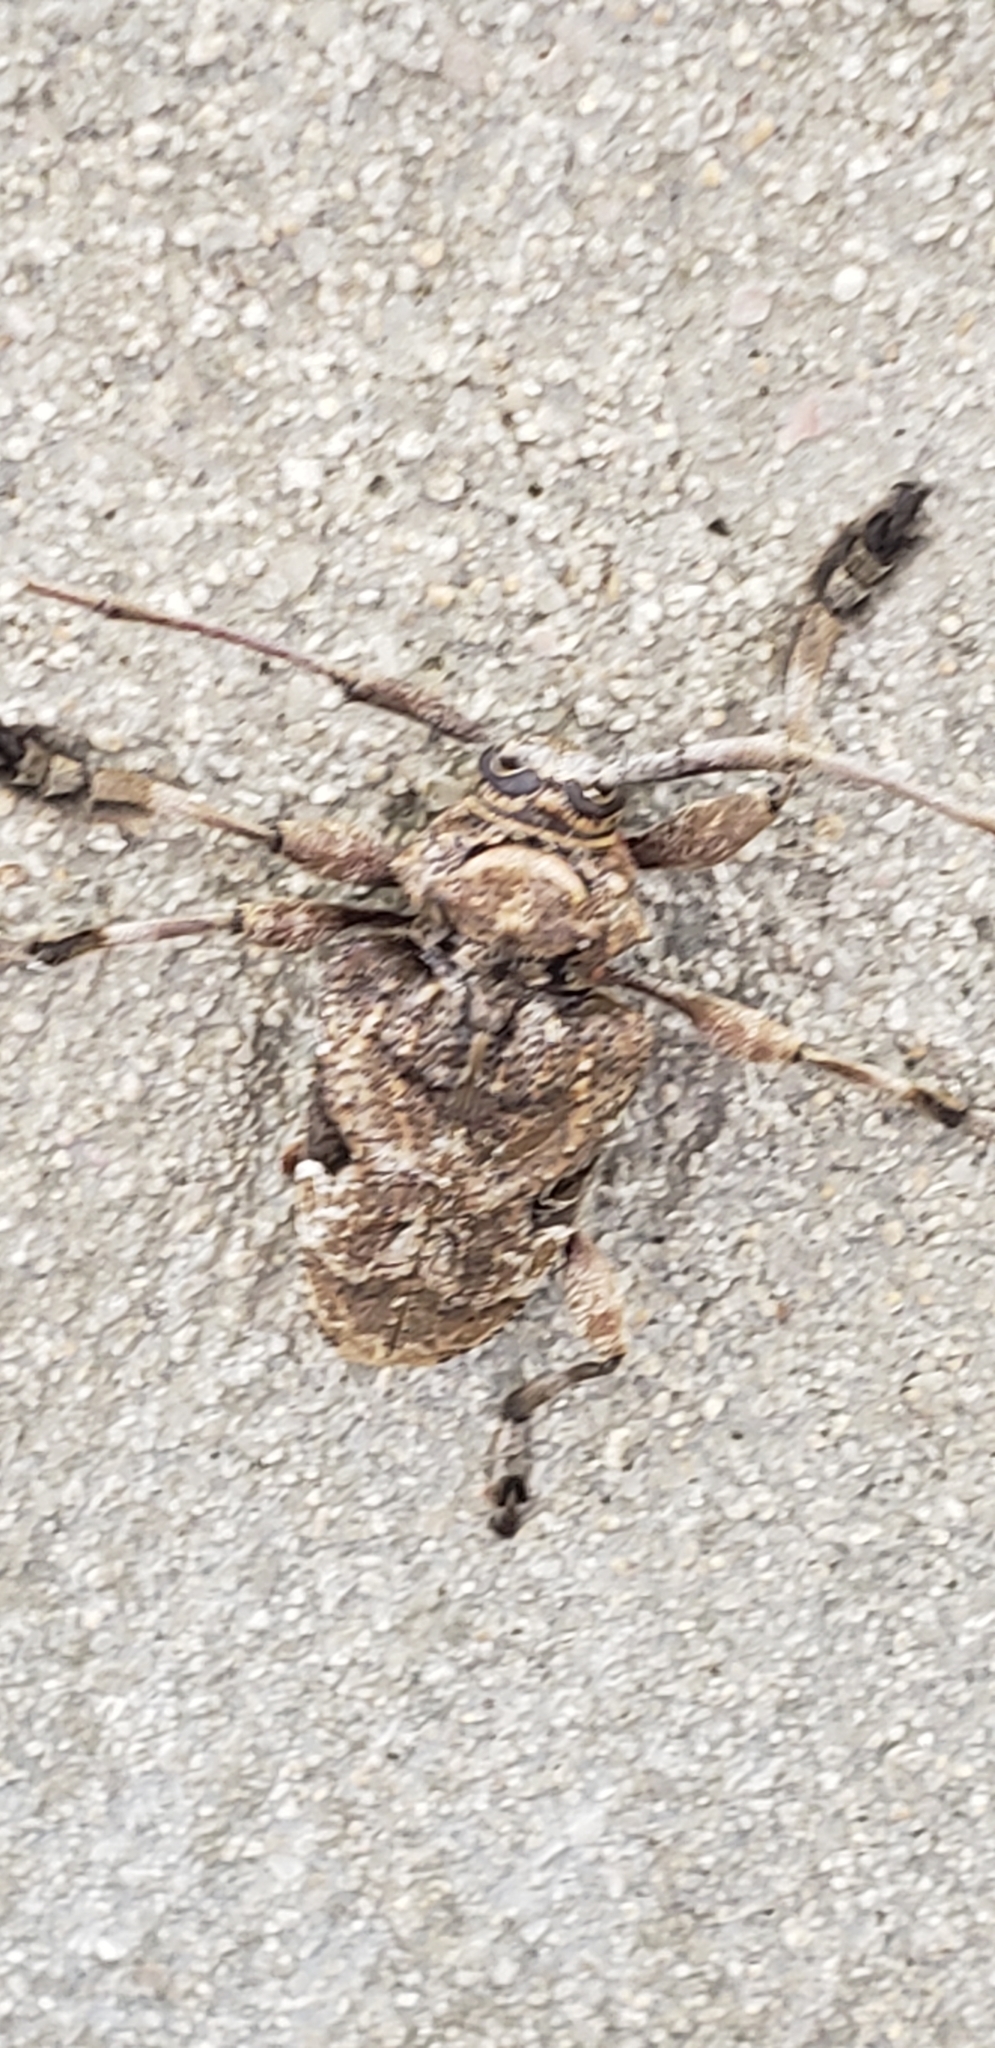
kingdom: Animalia
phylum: Arthropoda
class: Insecta
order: Coleoptera
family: Cerambycidae
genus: Lagocheirus
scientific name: Lagocheirus araneiformis
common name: Beetle
